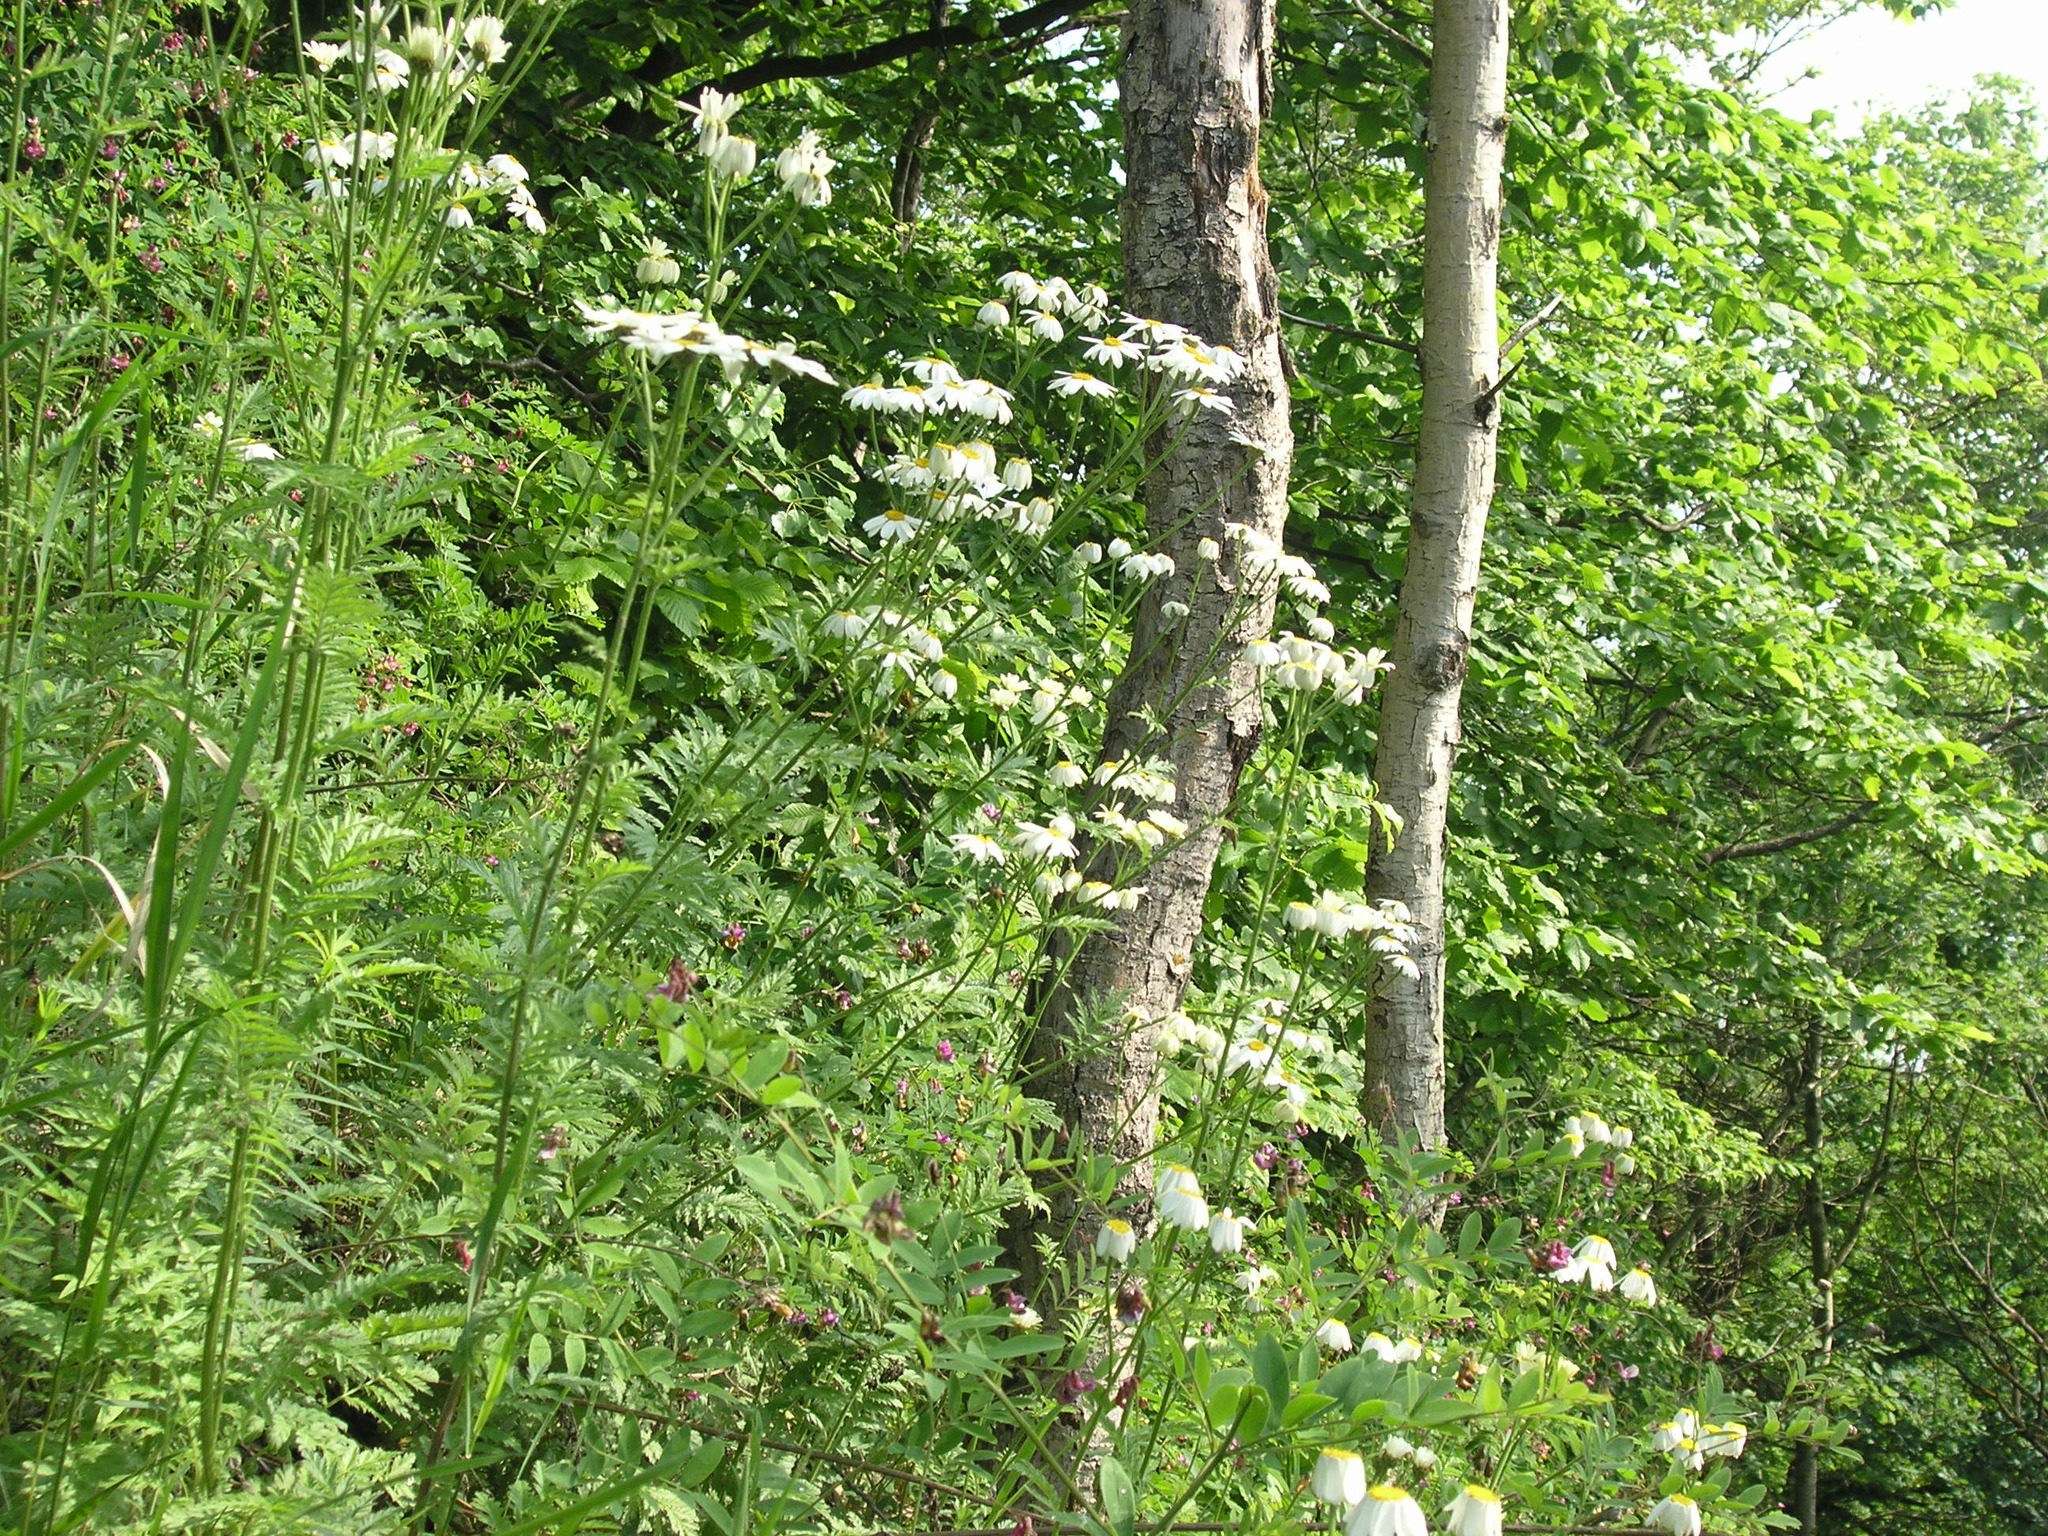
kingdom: Plantae
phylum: Tracheophyta
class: Magnoliopsida
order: Asterales
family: Asteraceae
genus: Tanacetum
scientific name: Tanacetum corymbosum
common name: Scentless feverfew
